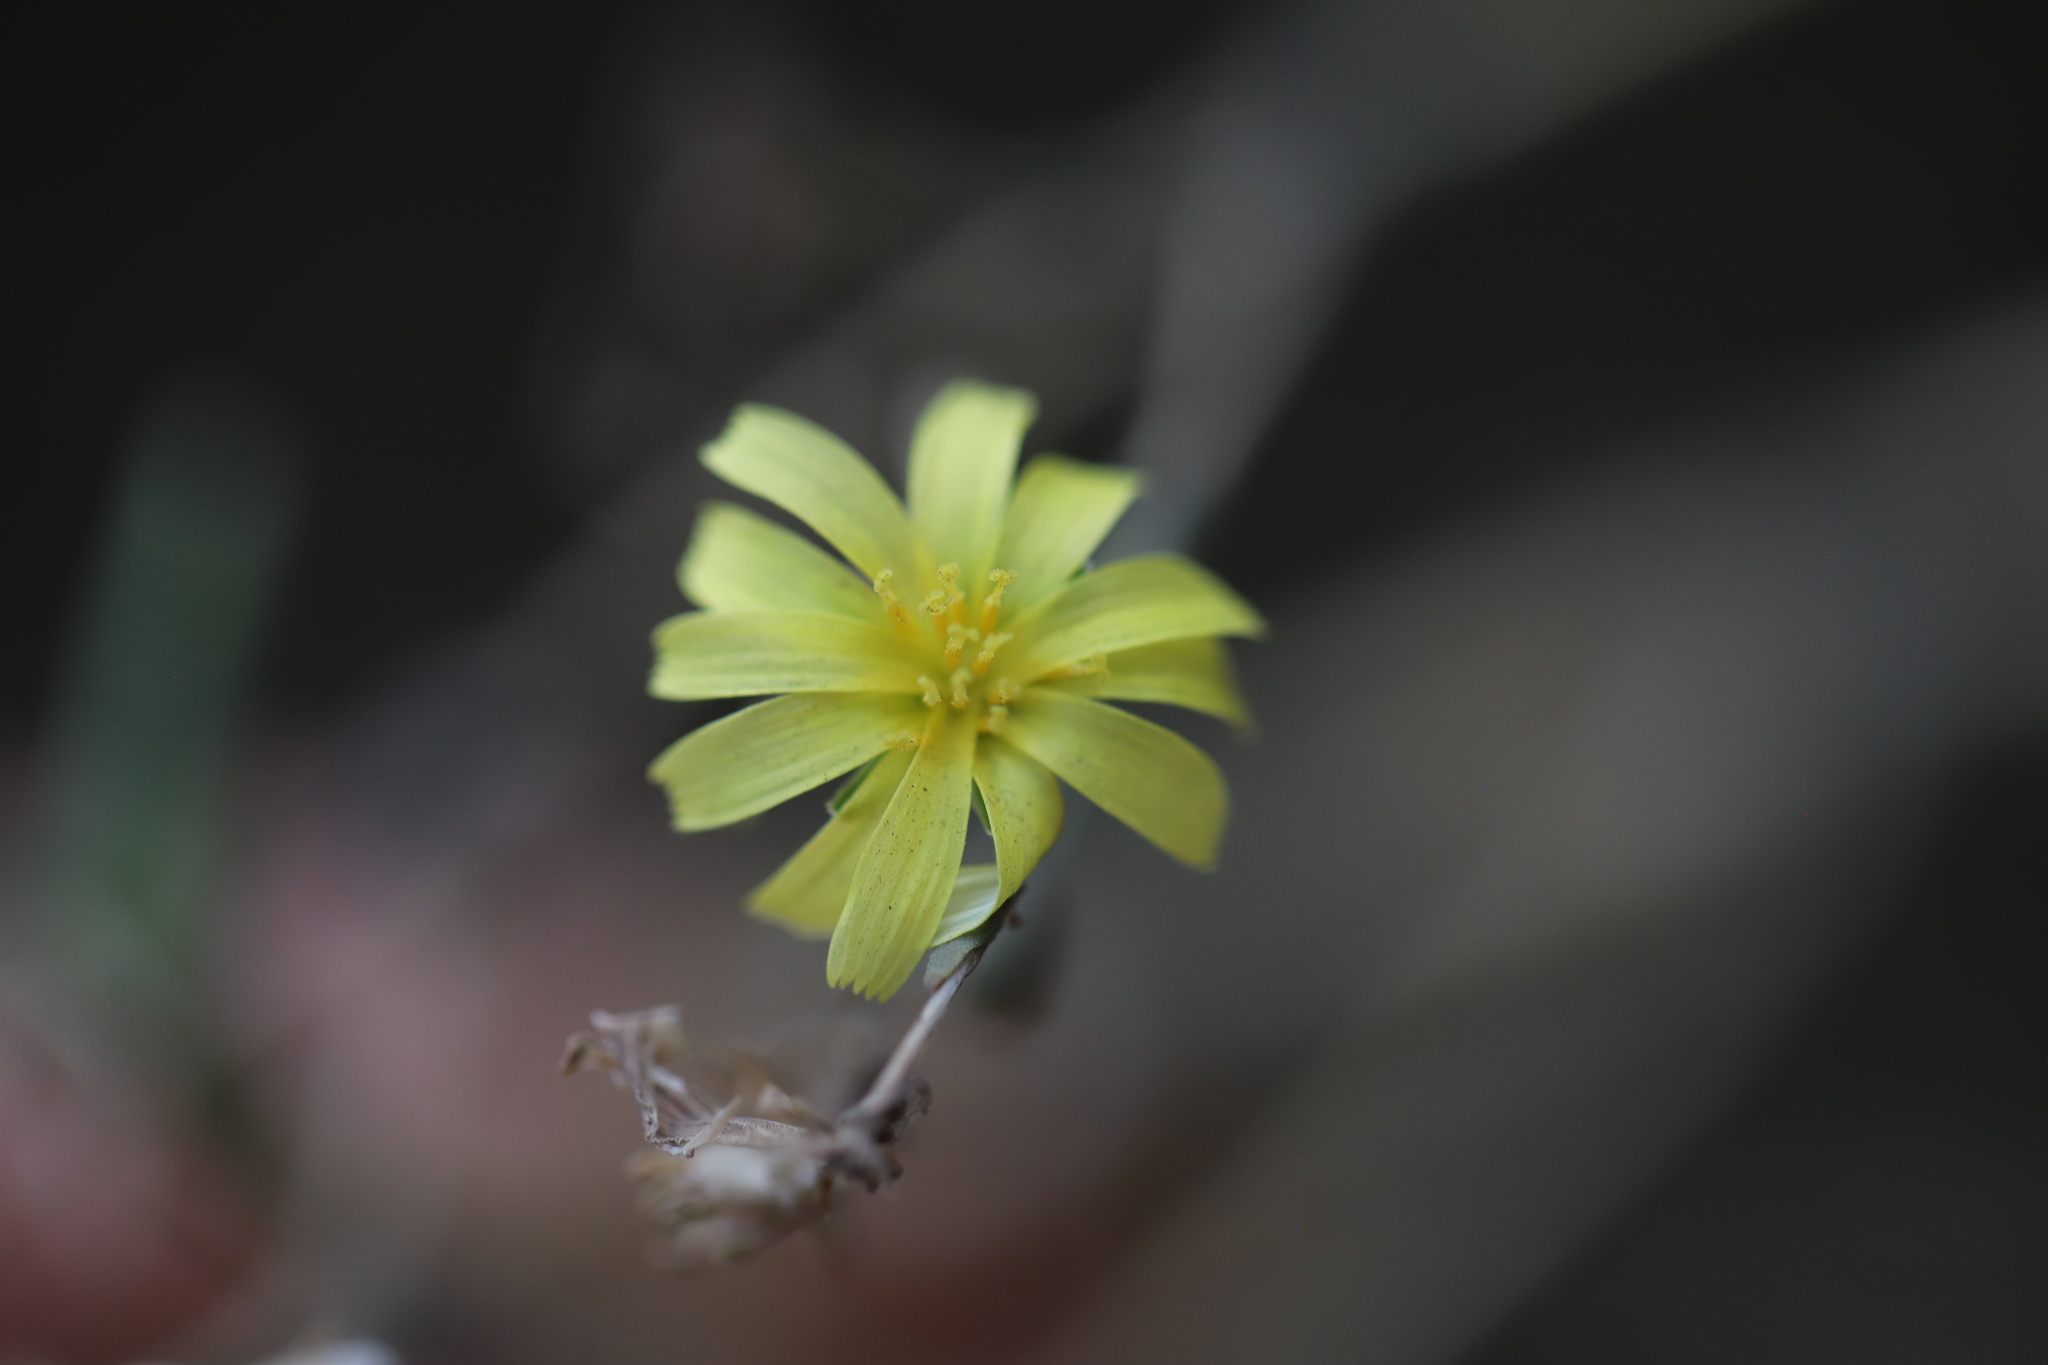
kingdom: Plantae
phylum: Tracheophyta
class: Magnoliopsida
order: Asterales
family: Asteraceae
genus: Lactuca
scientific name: Lactuca serriola
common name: Prickly lettuce
